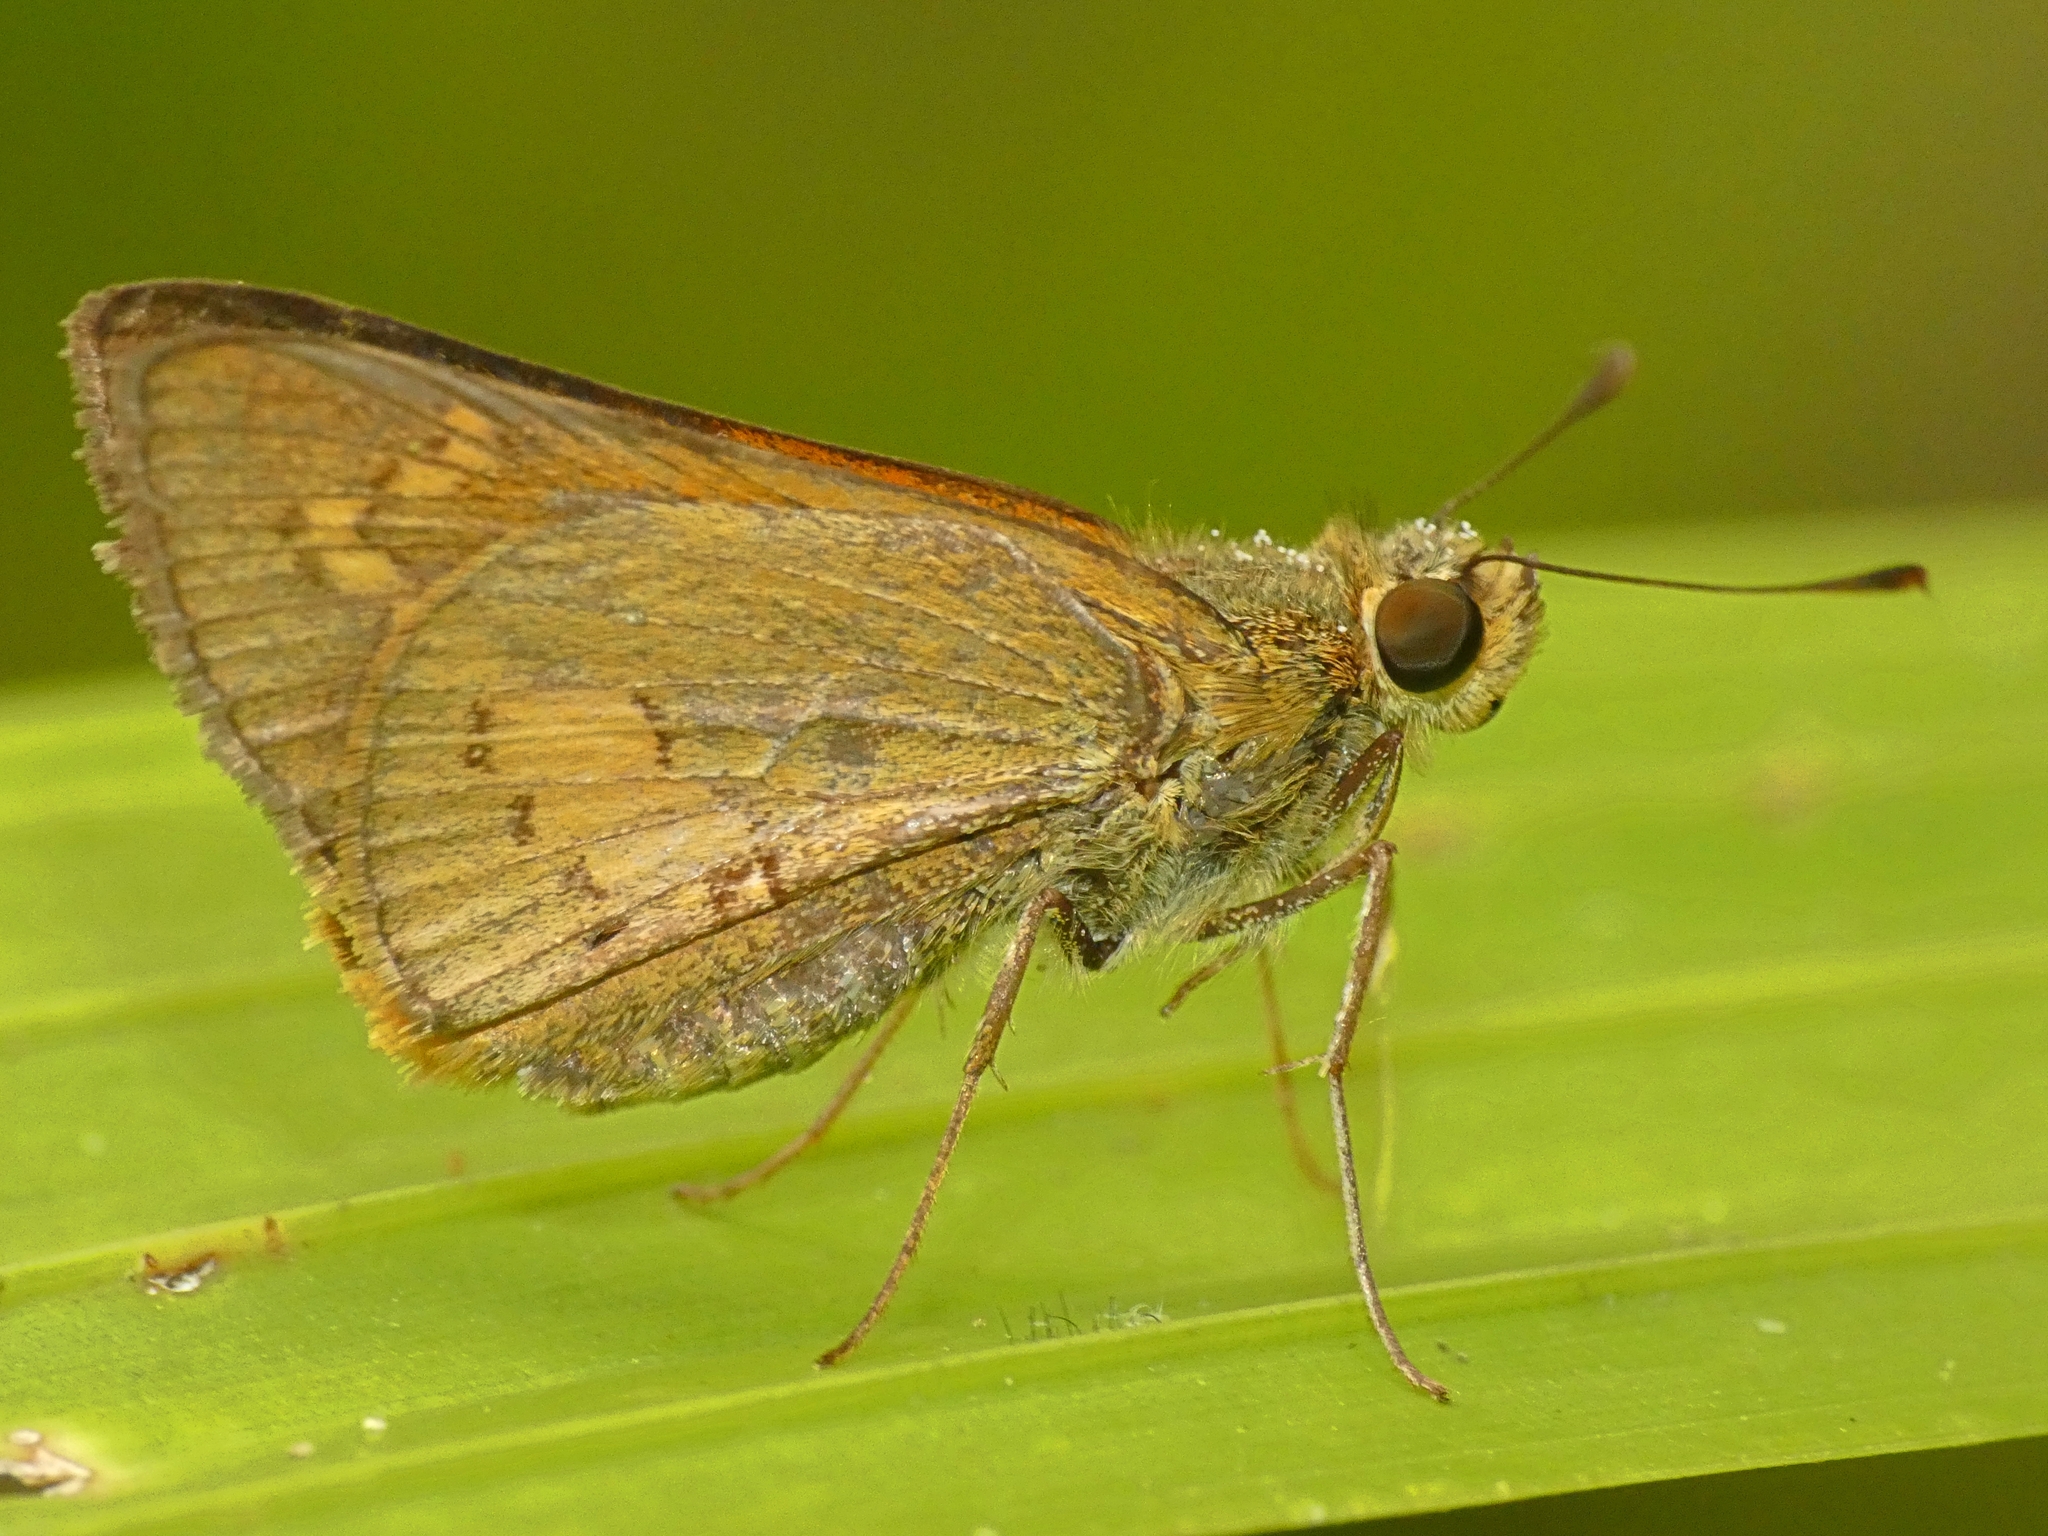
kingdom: Animalia
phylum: Arthropoda
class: Insecta
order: Lepidoptera
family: Hesperiidae
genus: Telicota
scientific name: Telicota paceka
